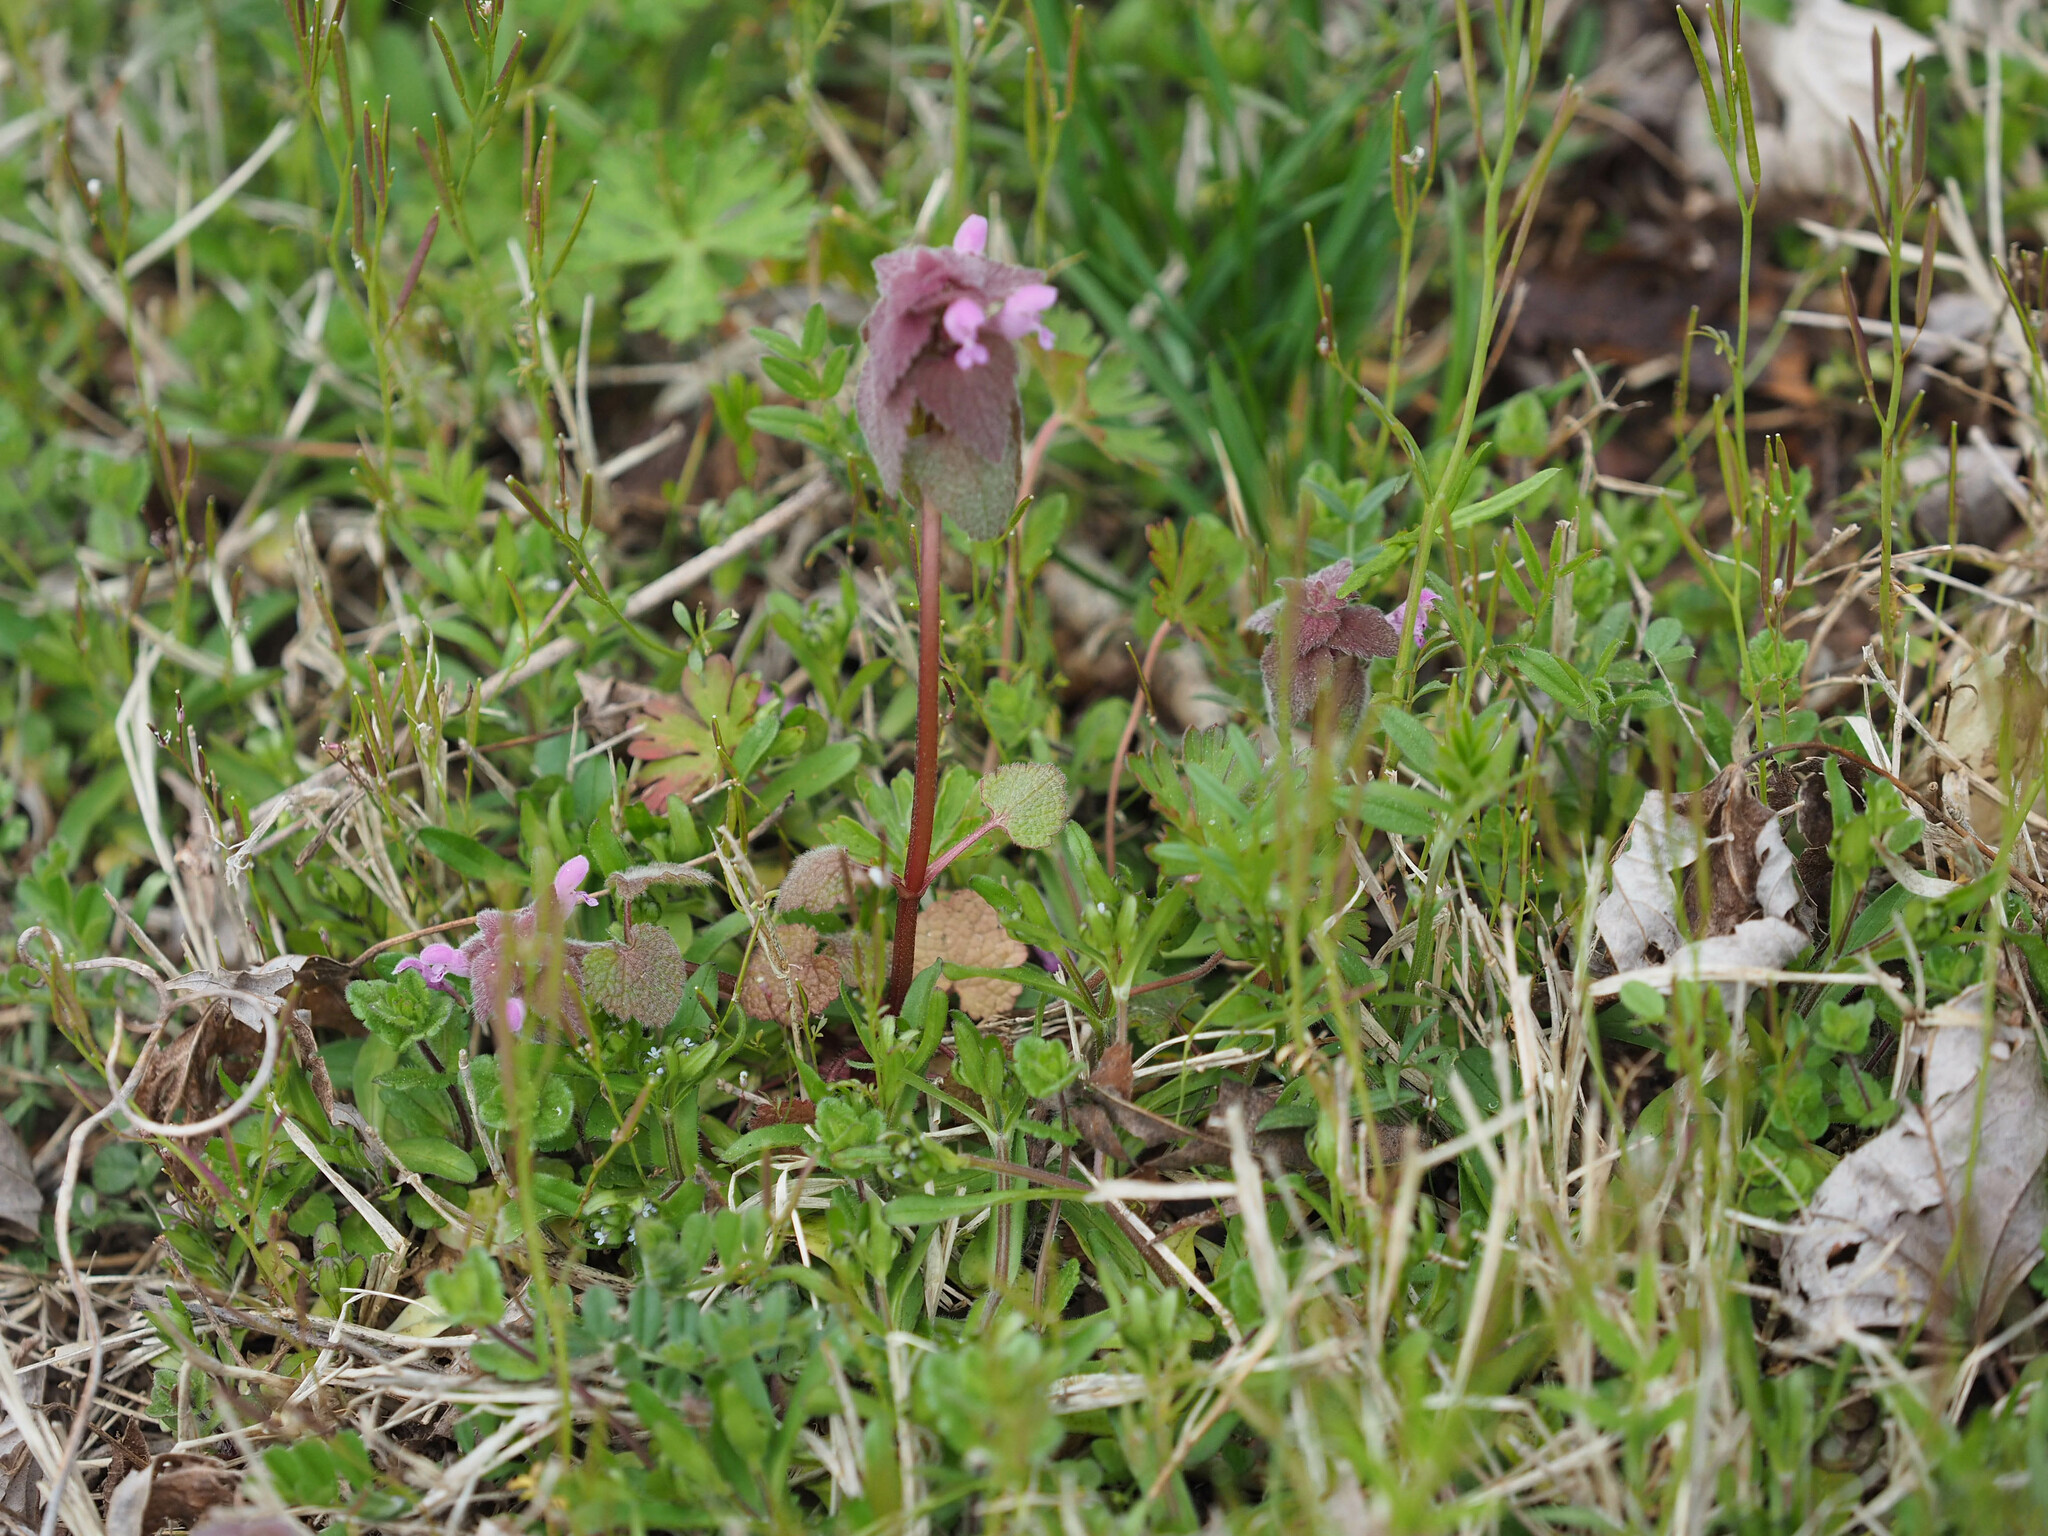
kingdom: Plantae
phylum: Tracheophyta
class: Magnoliopsida
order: Lamiales
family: Lamiaceae
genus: Lamium
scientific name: Lamium purpureum
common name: Red dead-nettle
